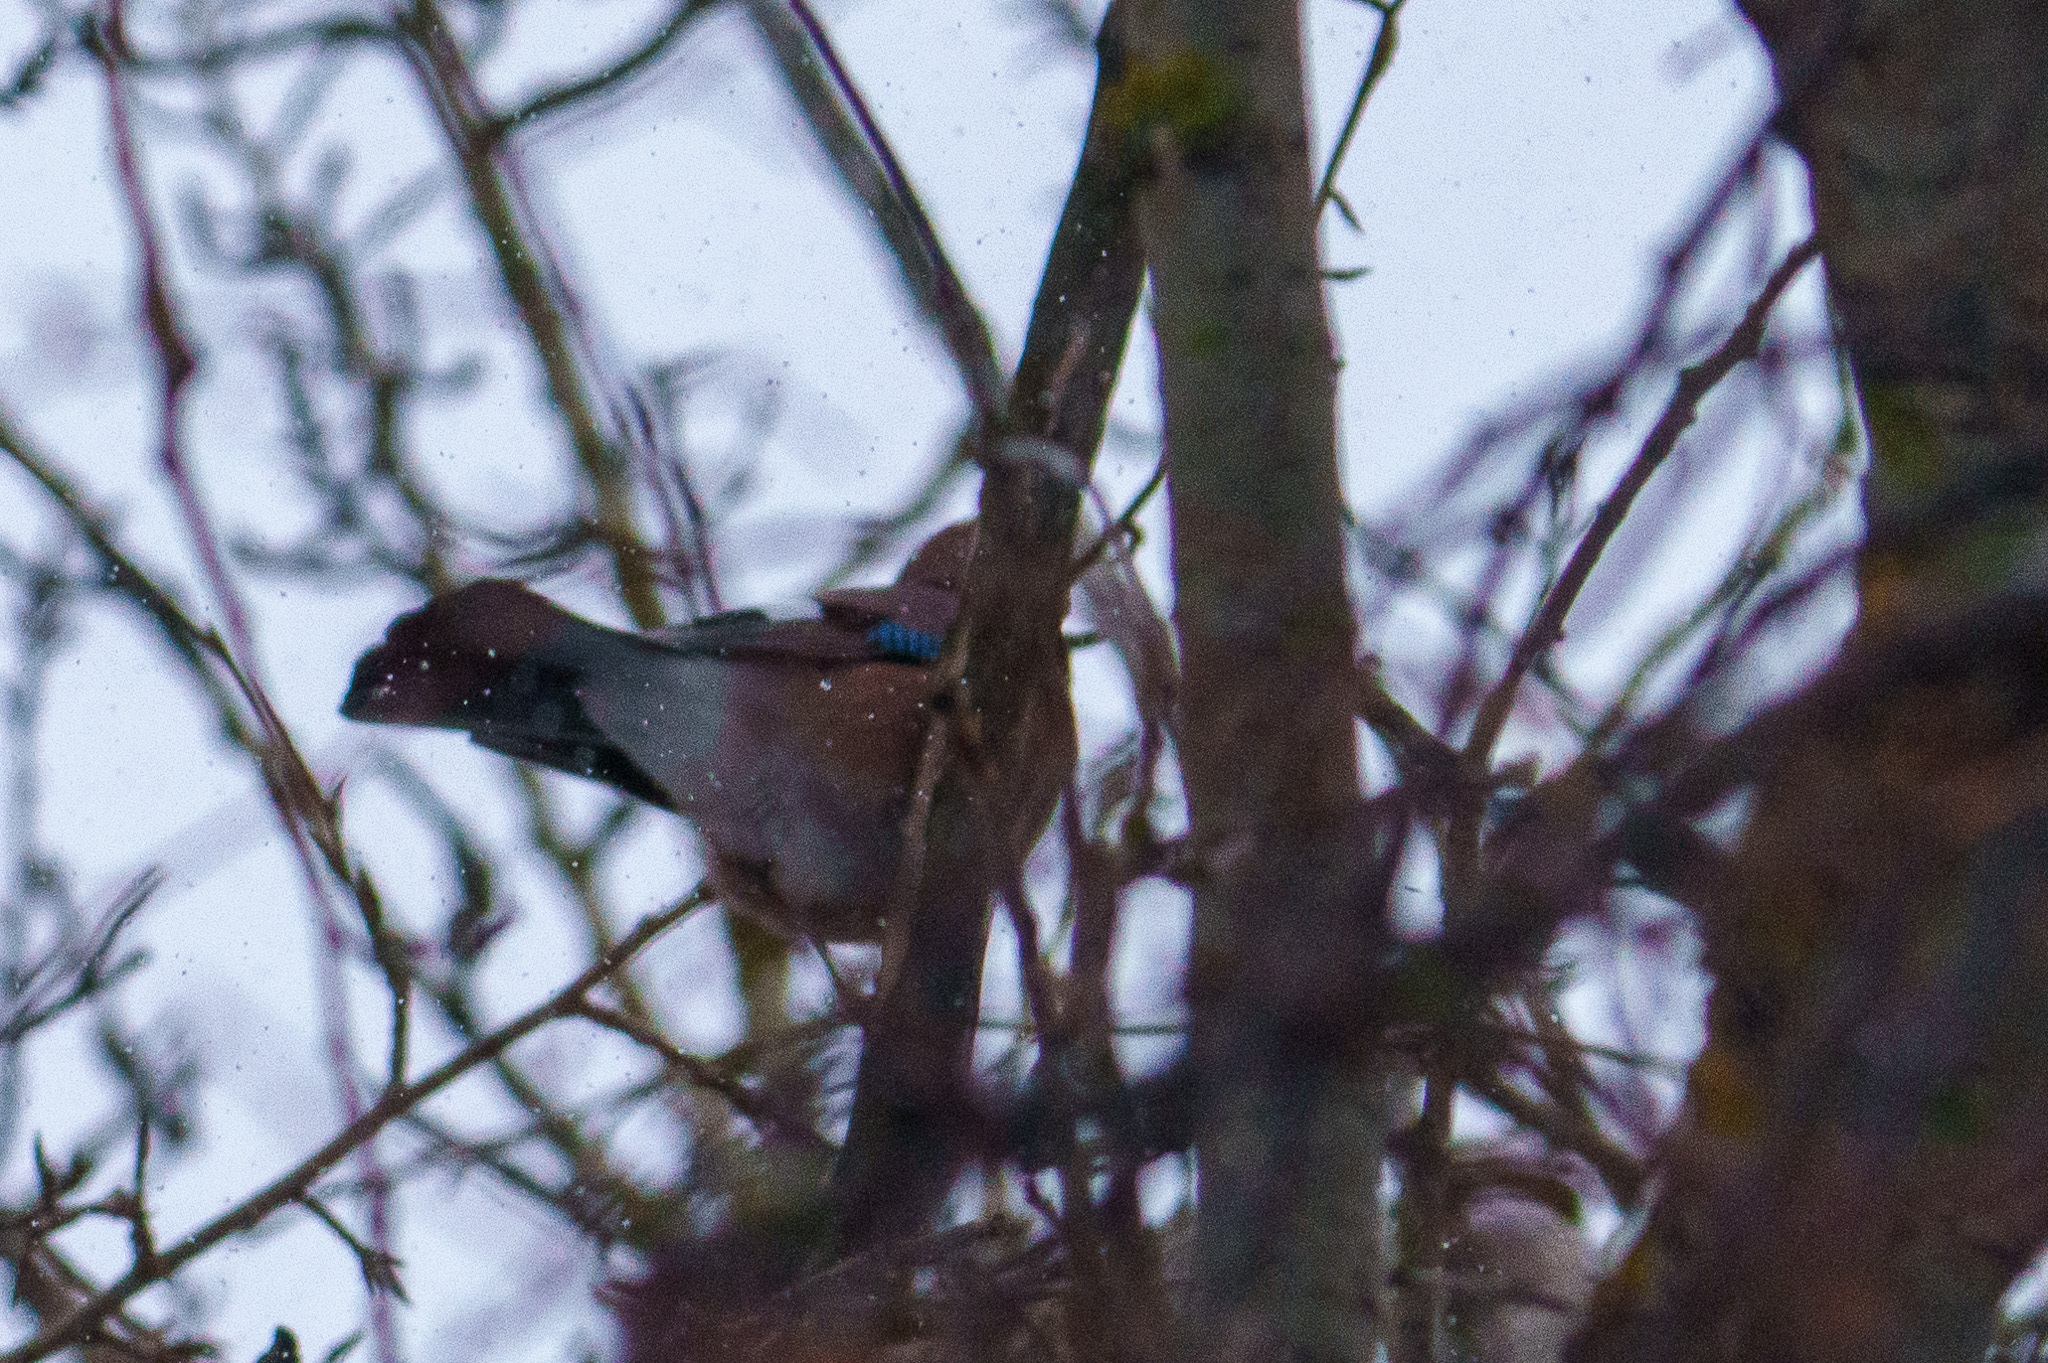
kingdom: Animalia
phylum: Chordata
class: Aves
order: Passeriformes
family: Corvidae
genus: Garrulus
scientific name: Garrulus glandarius
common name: Eurasian jay
